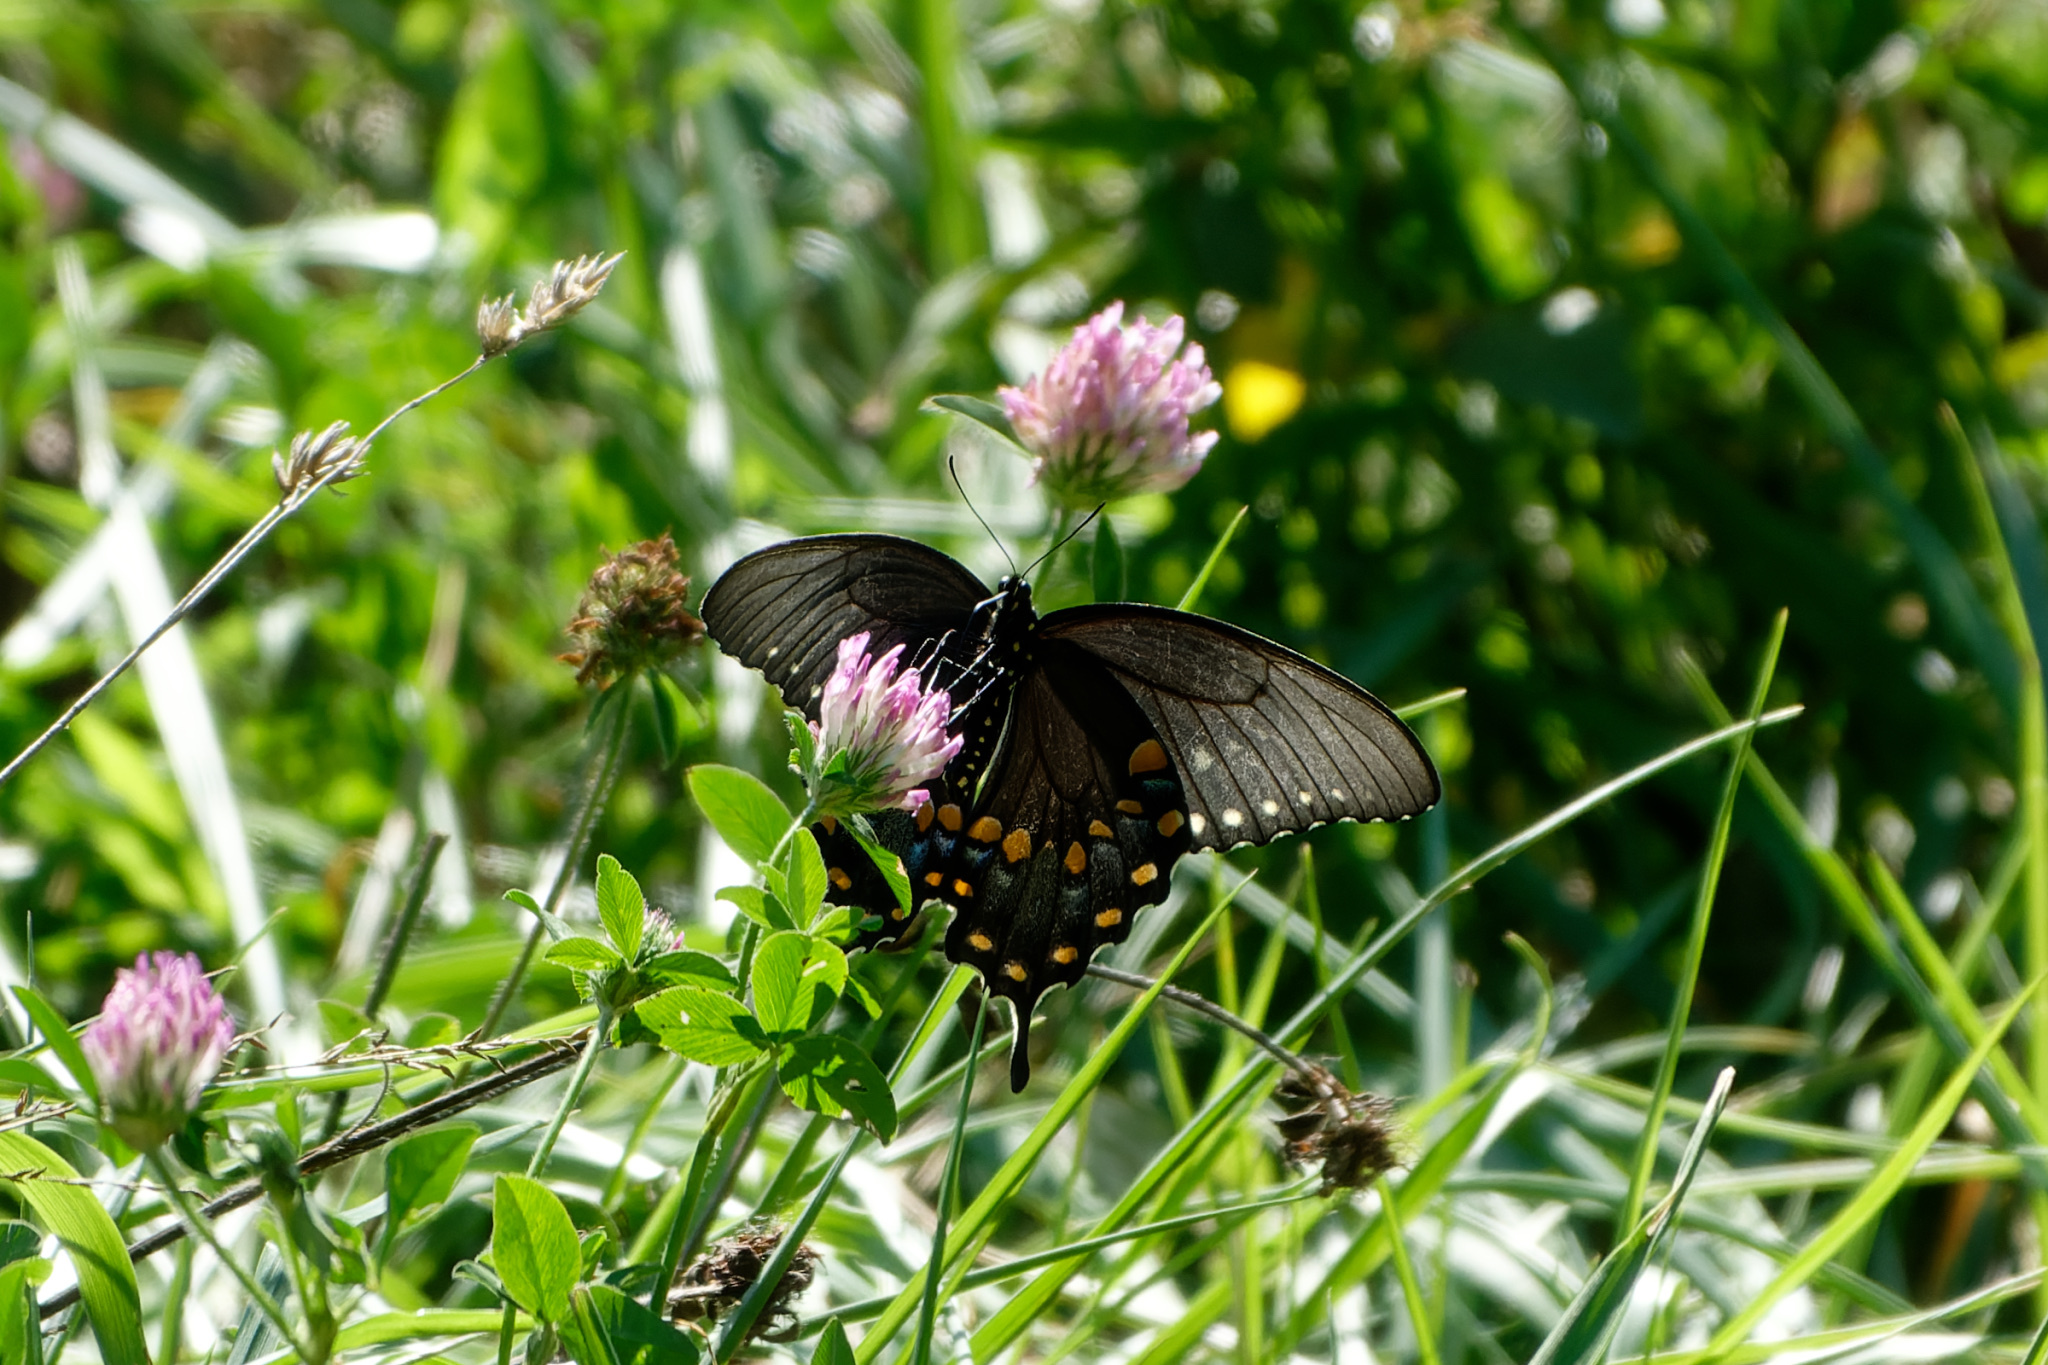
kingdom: Animalia
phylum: Arthropoda
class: Insecta
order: Lepidoptera
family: Papilionidae
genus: Papilio
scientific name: Papilio troilus
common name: Spicebush swallowtail
